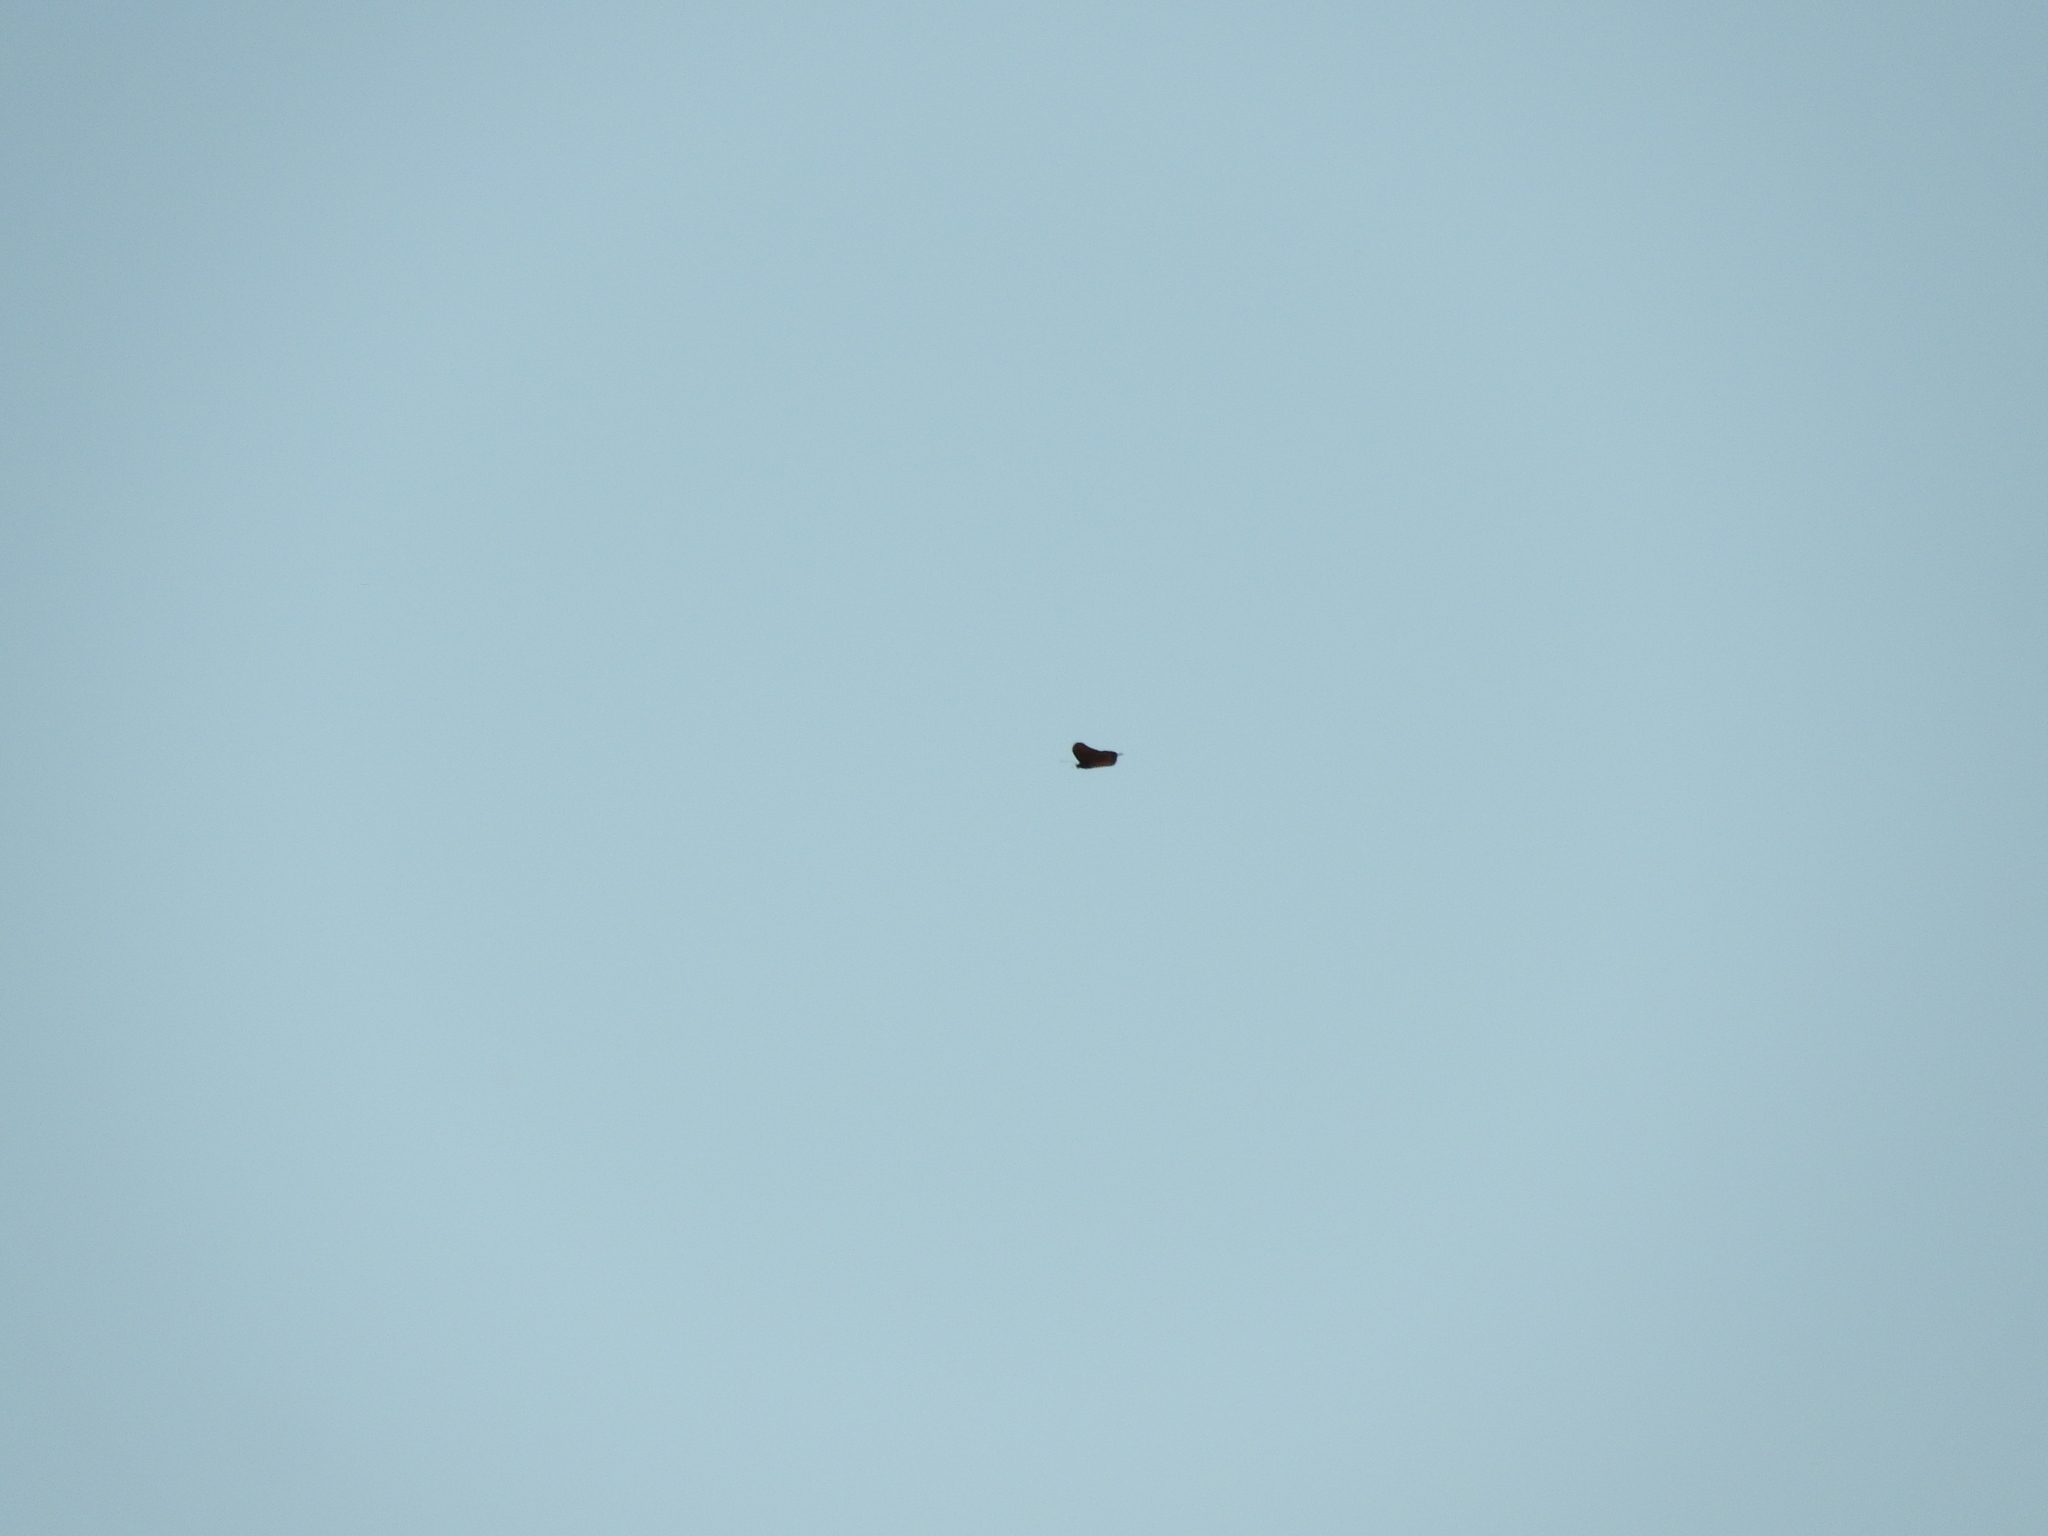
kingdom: Animalia
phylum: Arthropoda
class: Insecta
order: Lepidoptera
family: Nymphalidae
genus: Danaus
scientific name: Danaus plexippus
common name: Monarch
